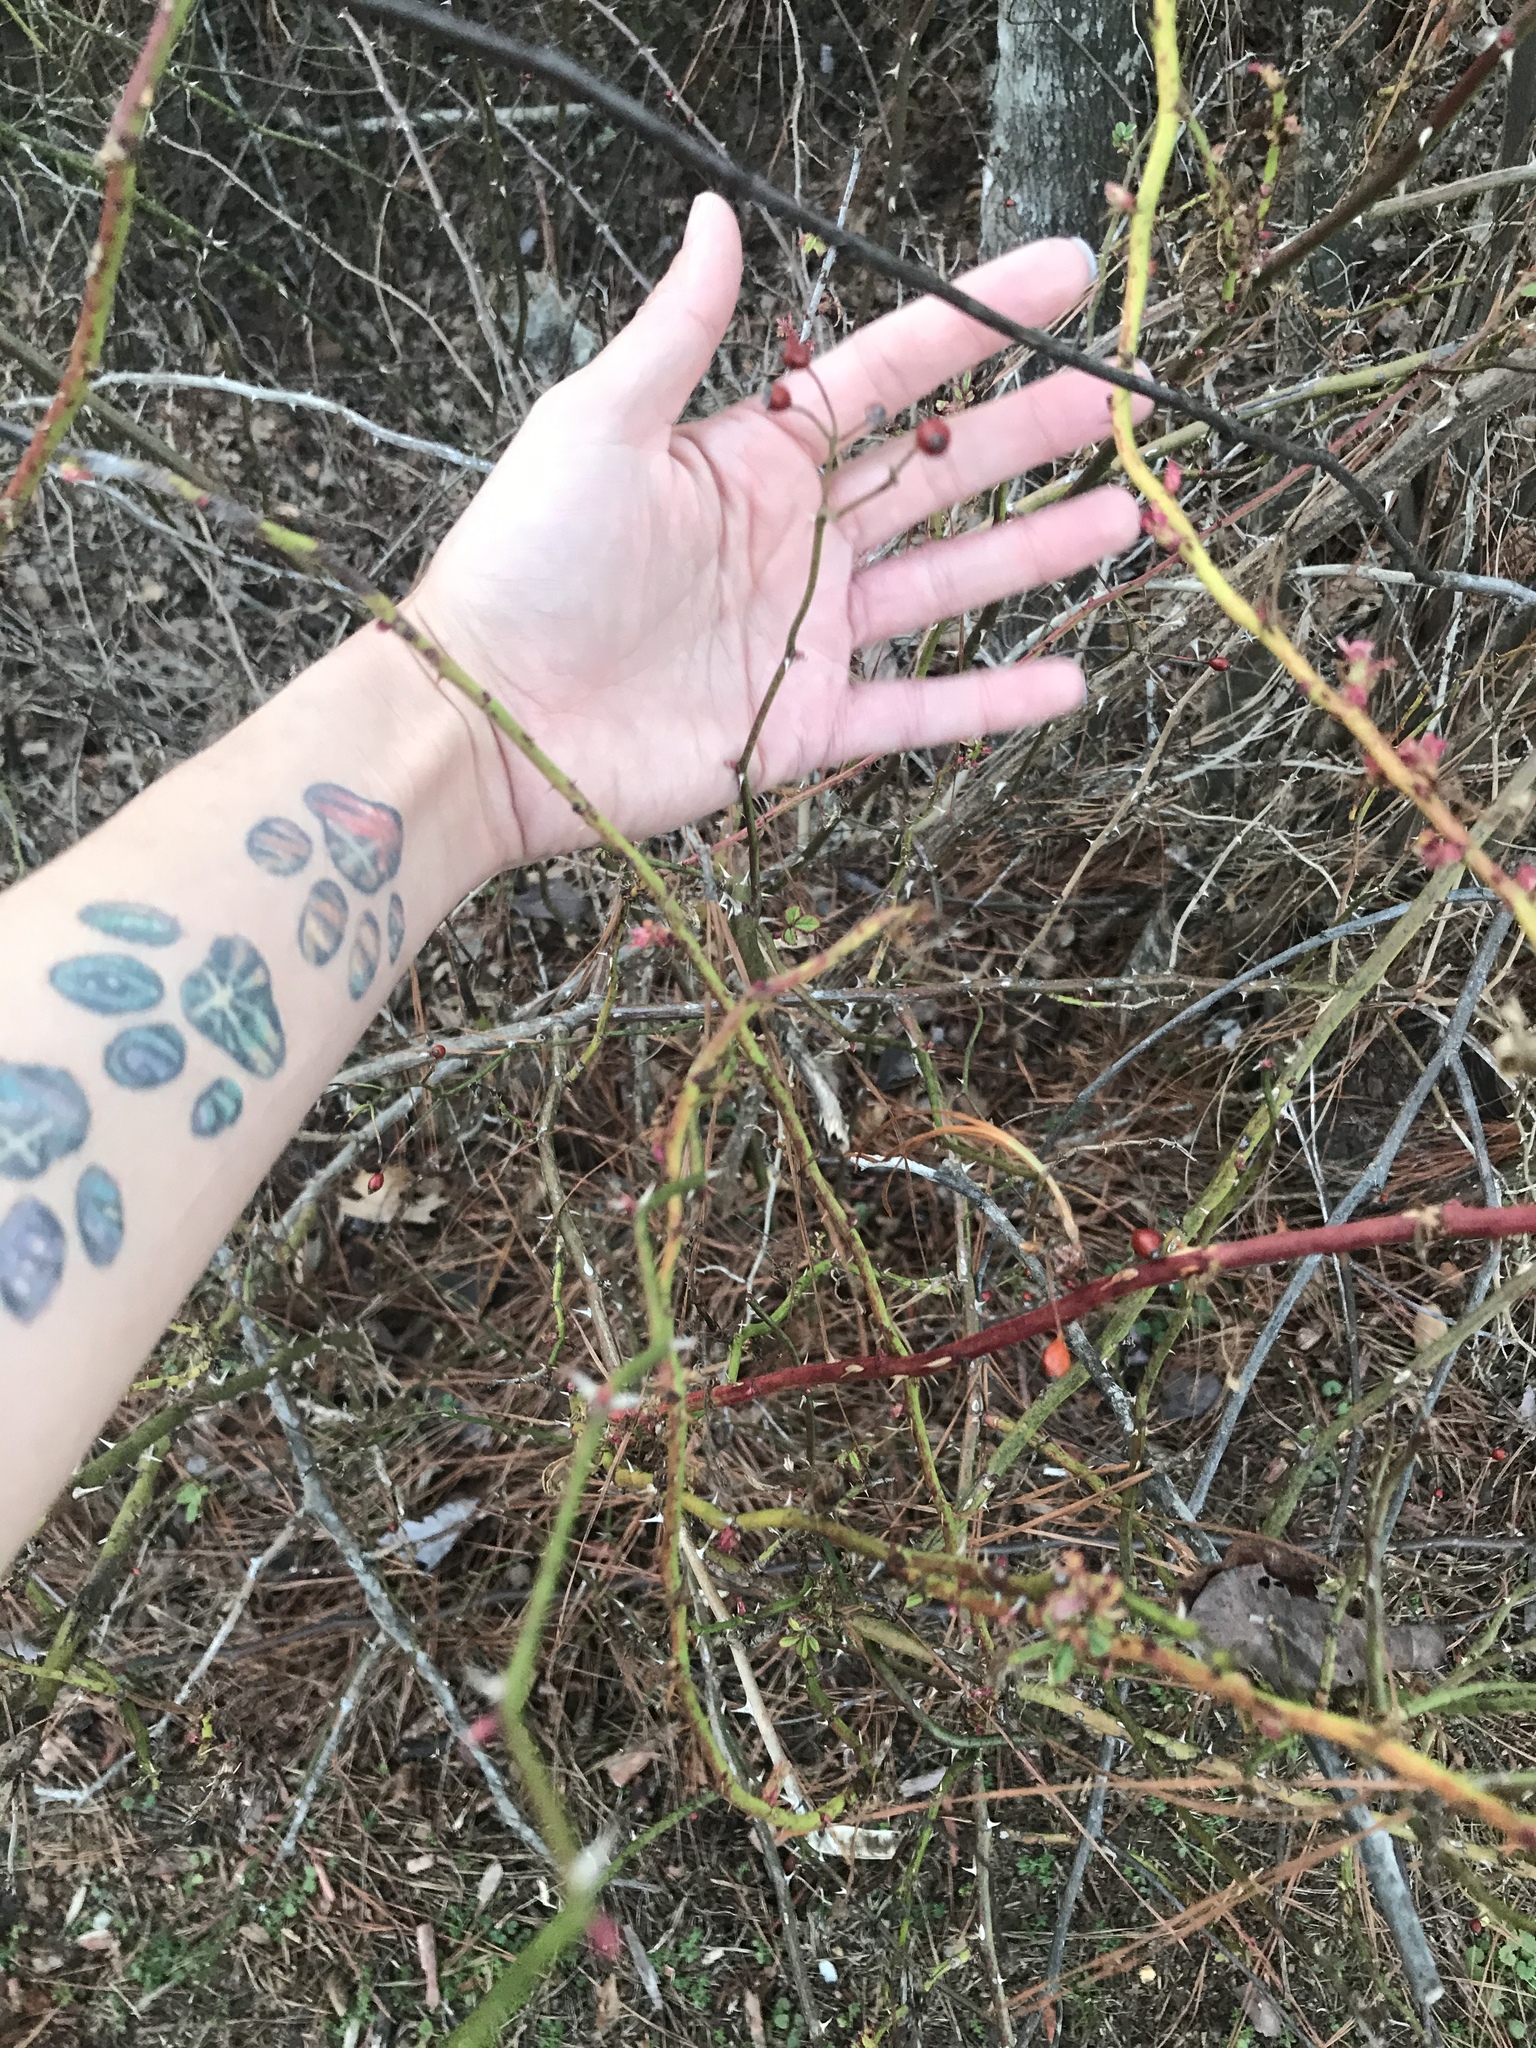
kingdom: Plantae
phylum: Tracheophyta
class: Magnoliopsida
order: Rosales
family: Rosaceae
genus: Rosa
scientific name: Rosa multiflora
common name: Multiflora rose
